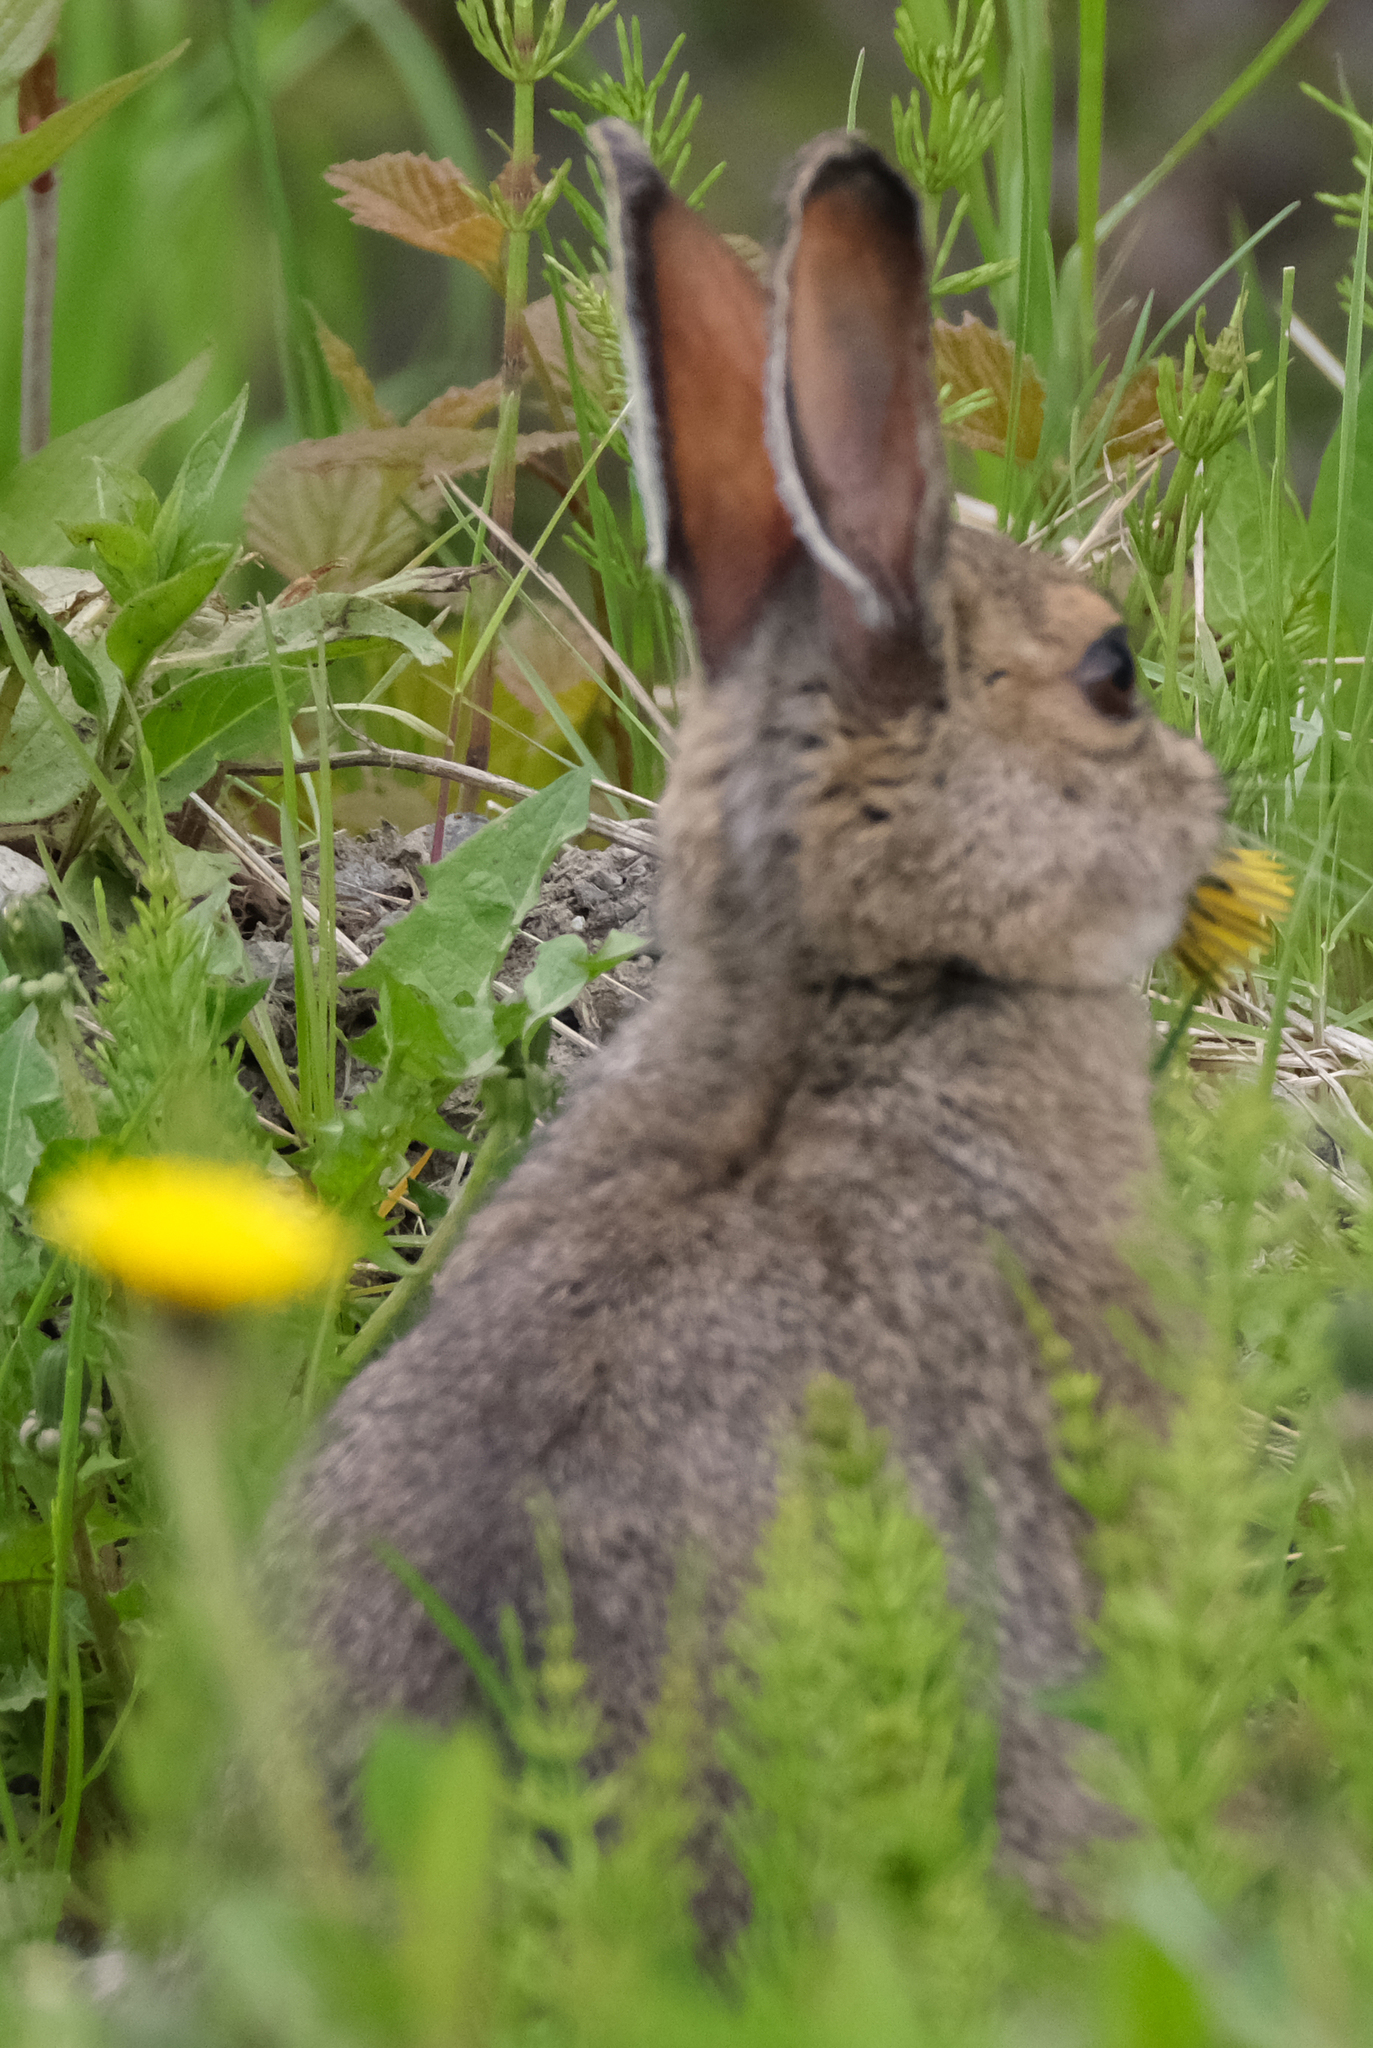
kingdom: Animalia
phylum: Chordata
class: Mammalia
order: Lagomorpha
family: Leporidae
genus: Lepus
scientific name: Lepus americanus
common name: Snowshoe hare
